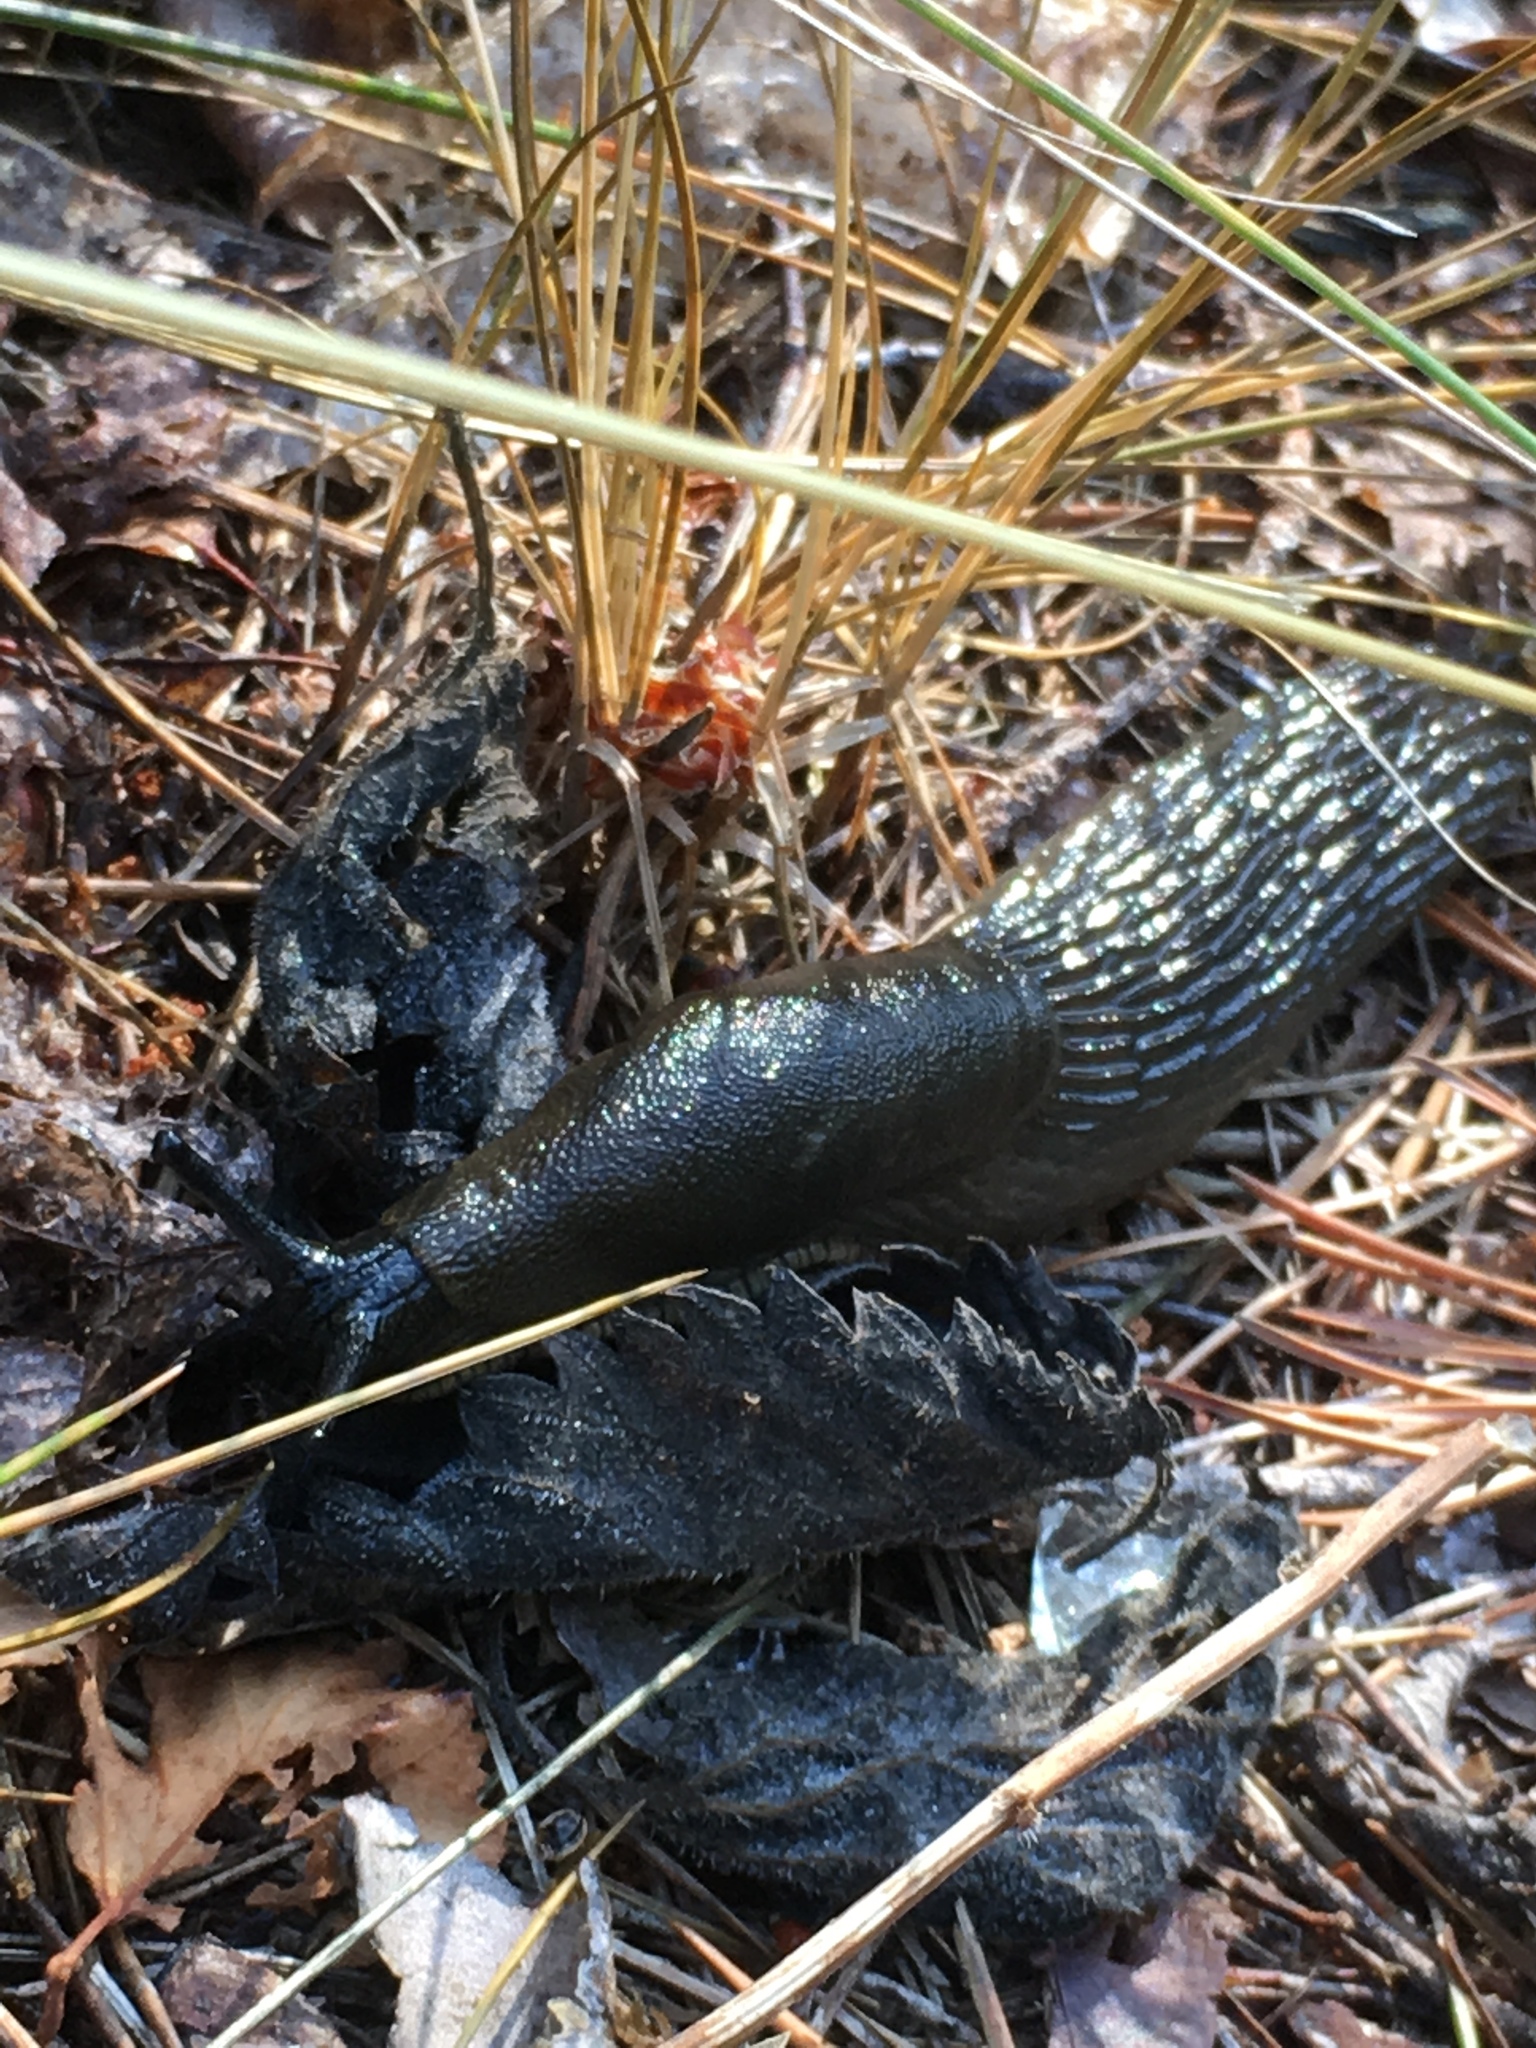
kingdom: Animalia
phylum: Mollusca
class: Gastropoda
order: Stylommatophora
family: Arionidae
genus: Arion
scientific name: Arion ater
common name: Black arion
